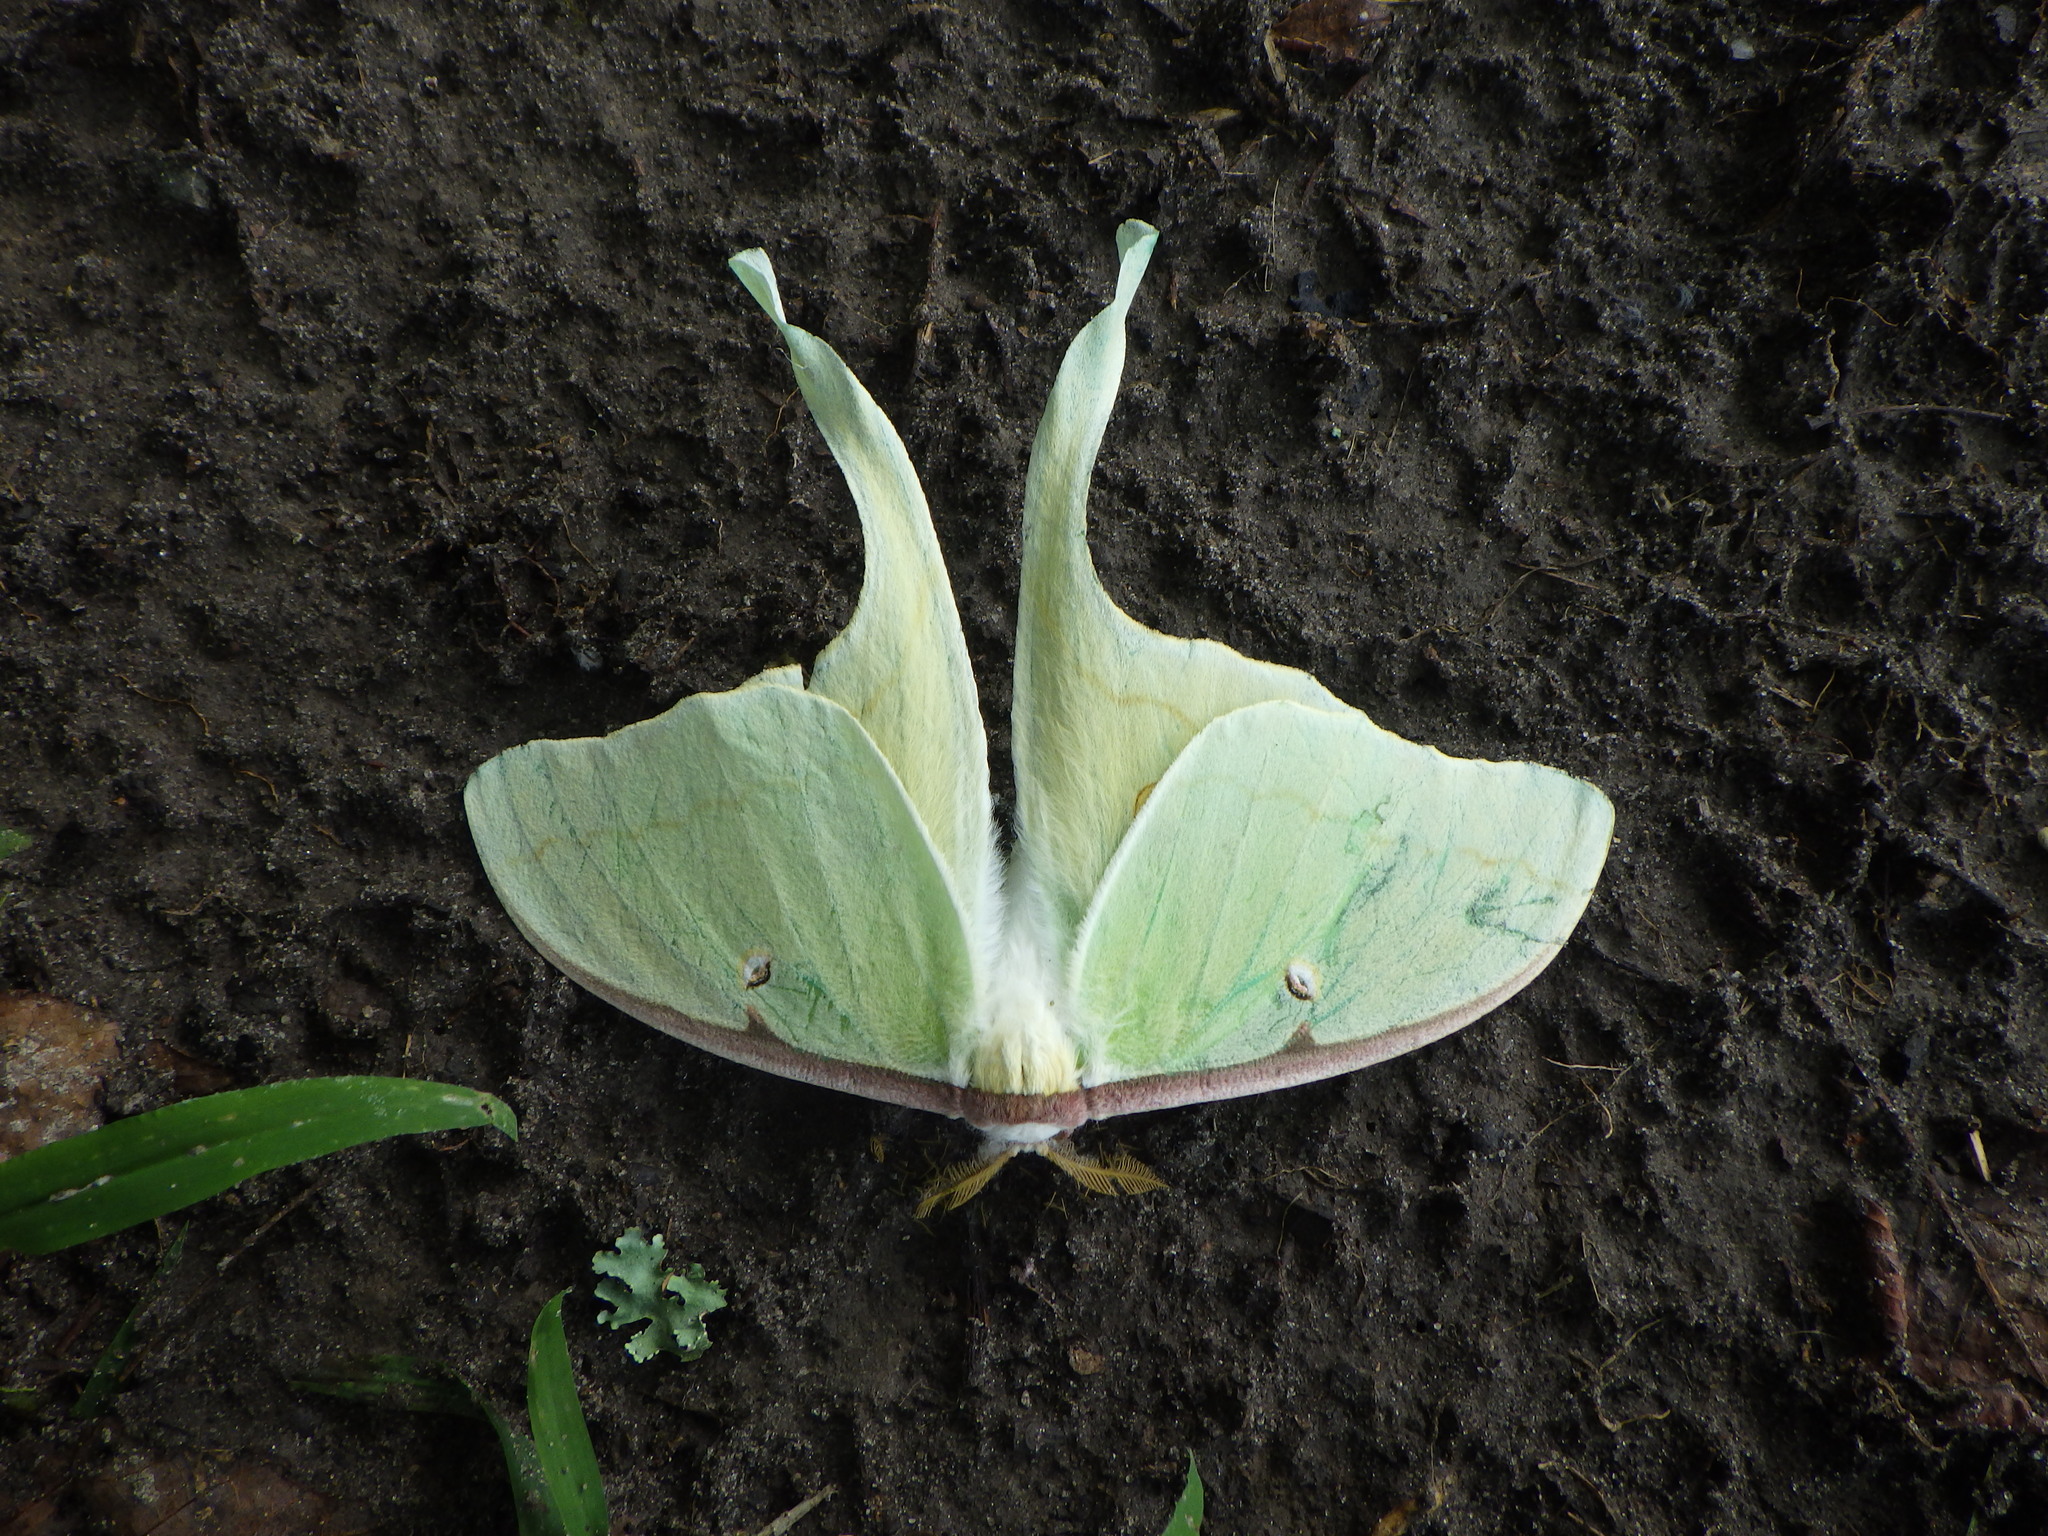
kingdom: Animalia
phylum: Arthropoda
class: Insecta
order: Lepidoptera
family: Saturniidae
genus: Actias
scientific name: Actias luna
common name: Luna moth
